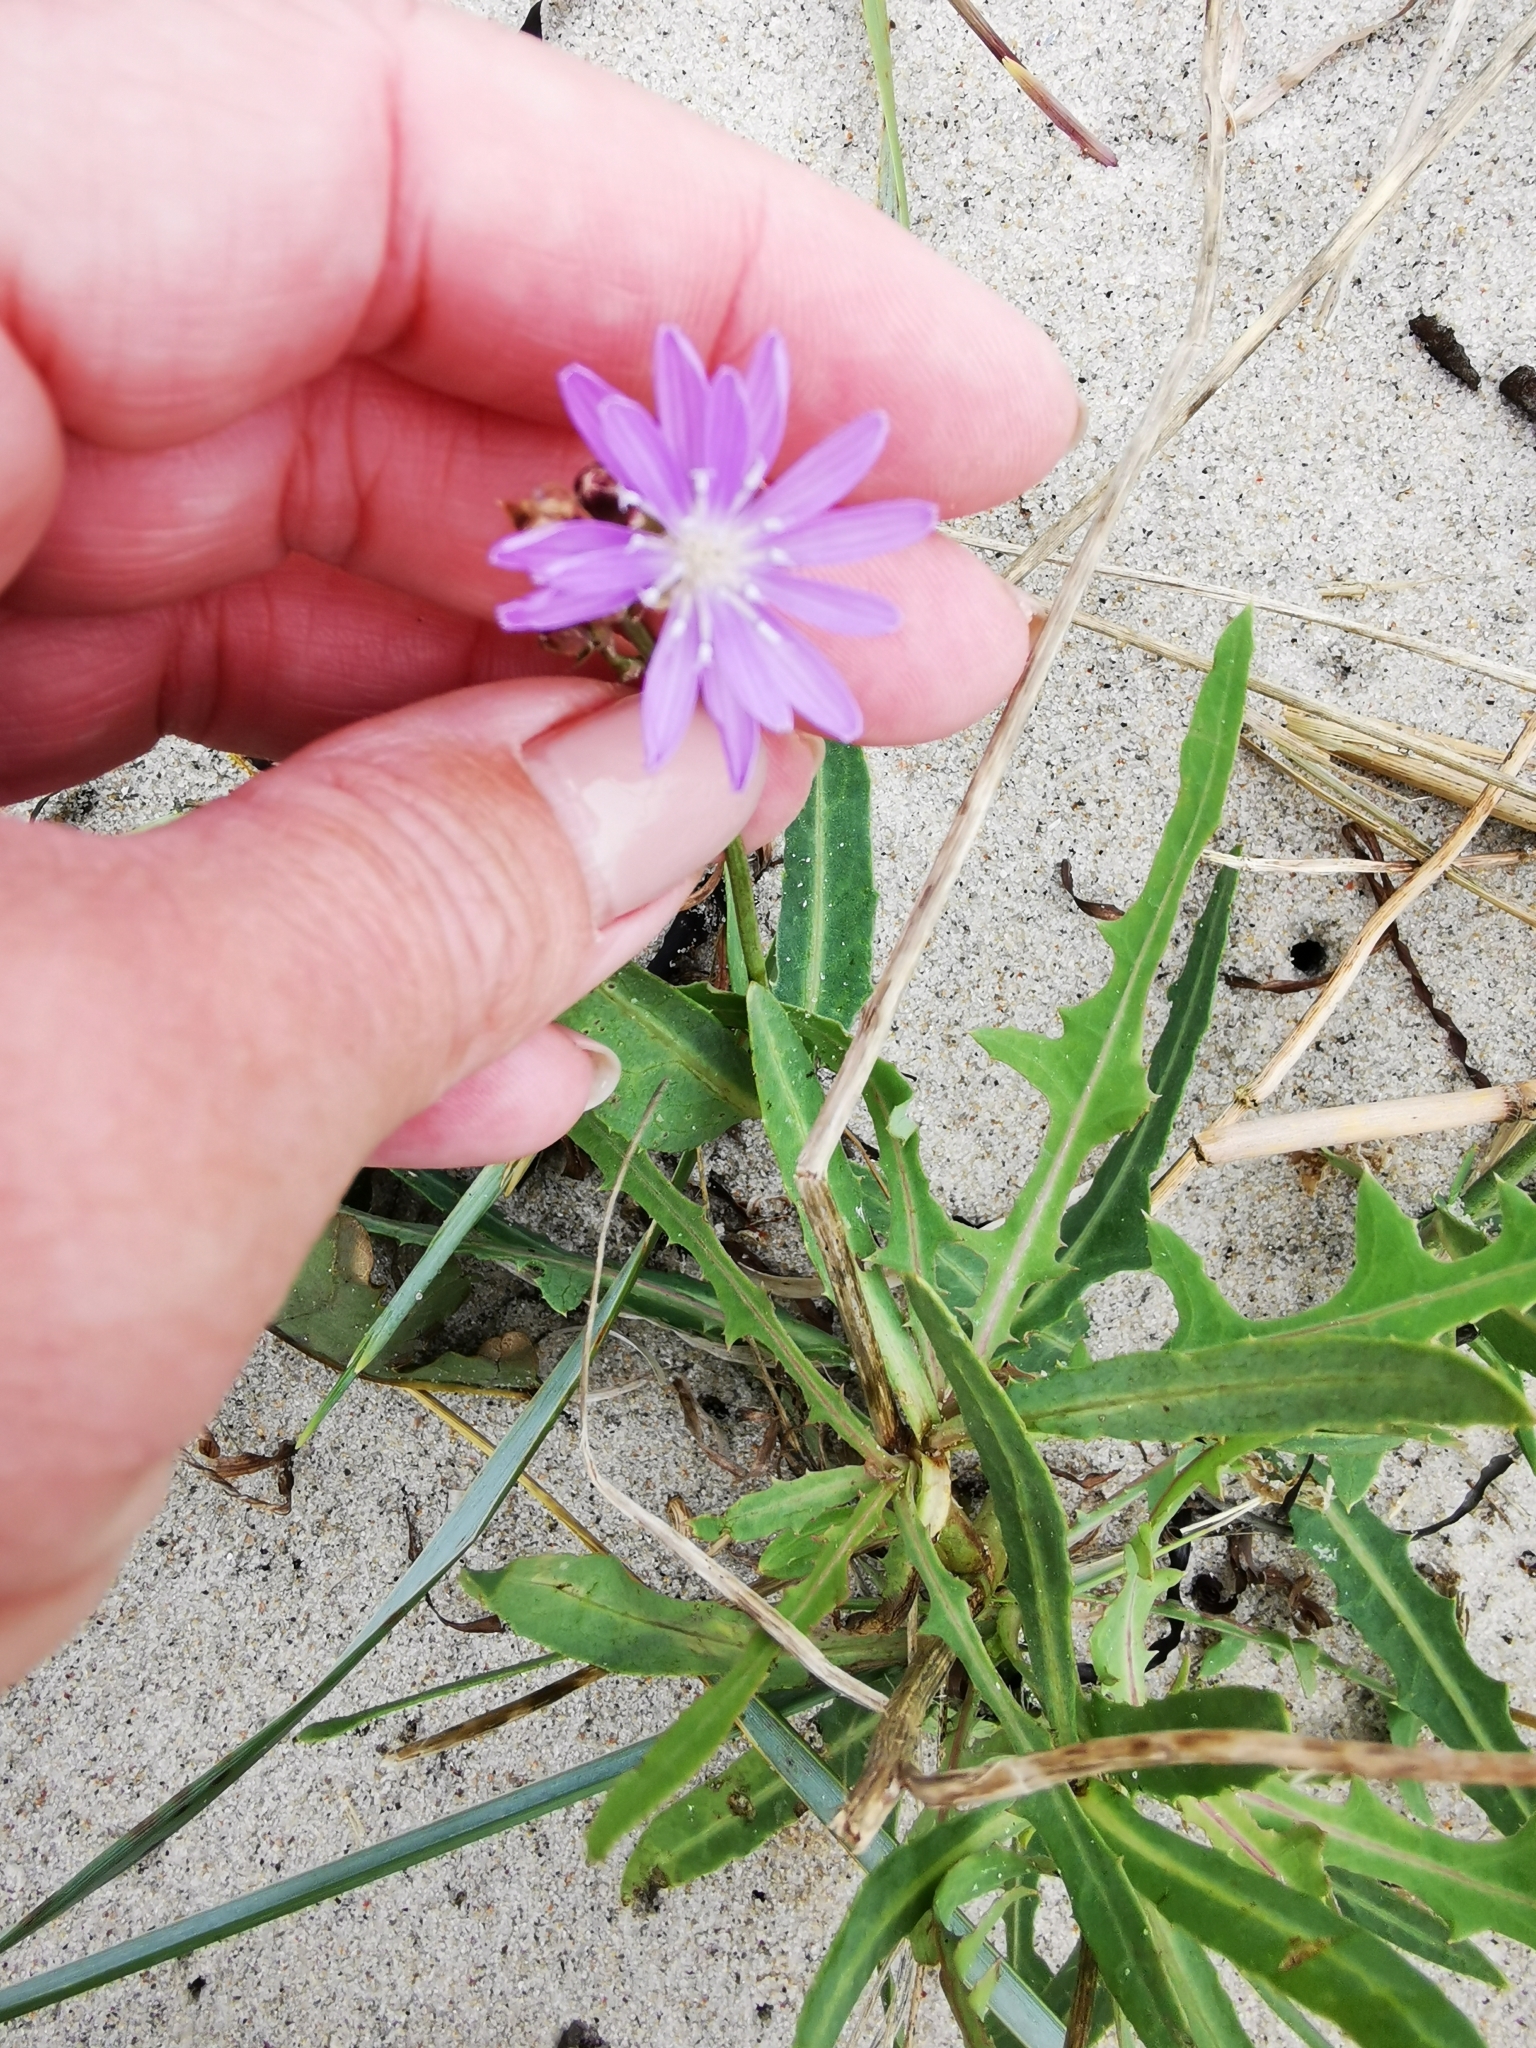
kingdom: Plantae
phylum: Tracheophyta
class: Magnoliopsida
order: Asterales
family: Asteraceae
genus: Lactuca
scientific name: Lactuca tatarica
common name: Blue lettuce
